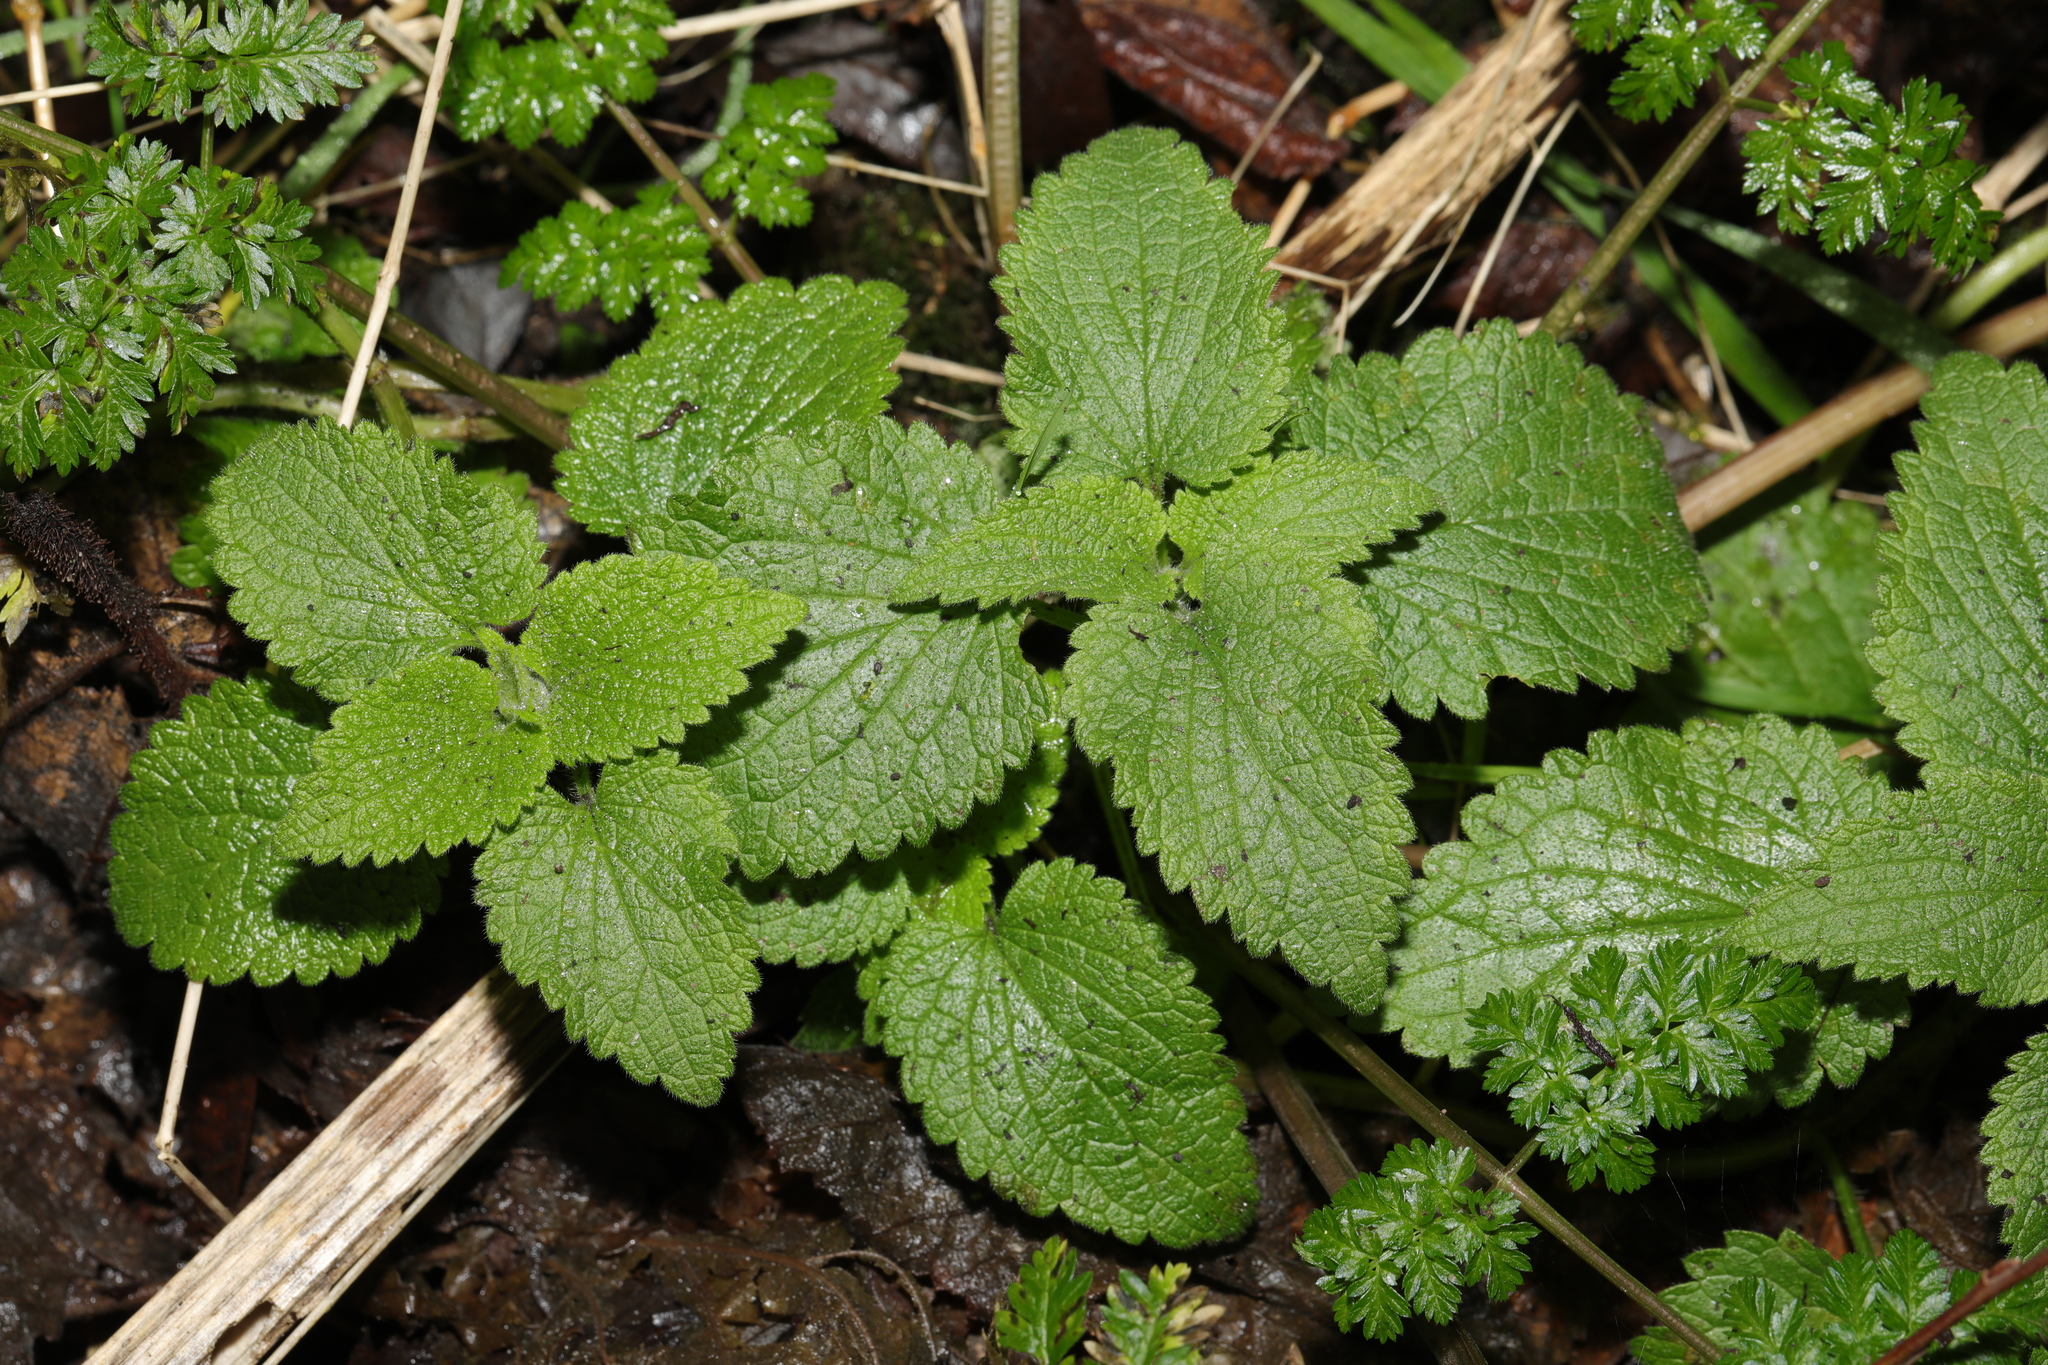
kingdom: Plantae
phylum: Tracheophyta
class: Magnoliopsida
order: Lamiales
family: Lamiaceae
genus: Lamium
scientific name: Lamium album
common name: White dead-nettle
